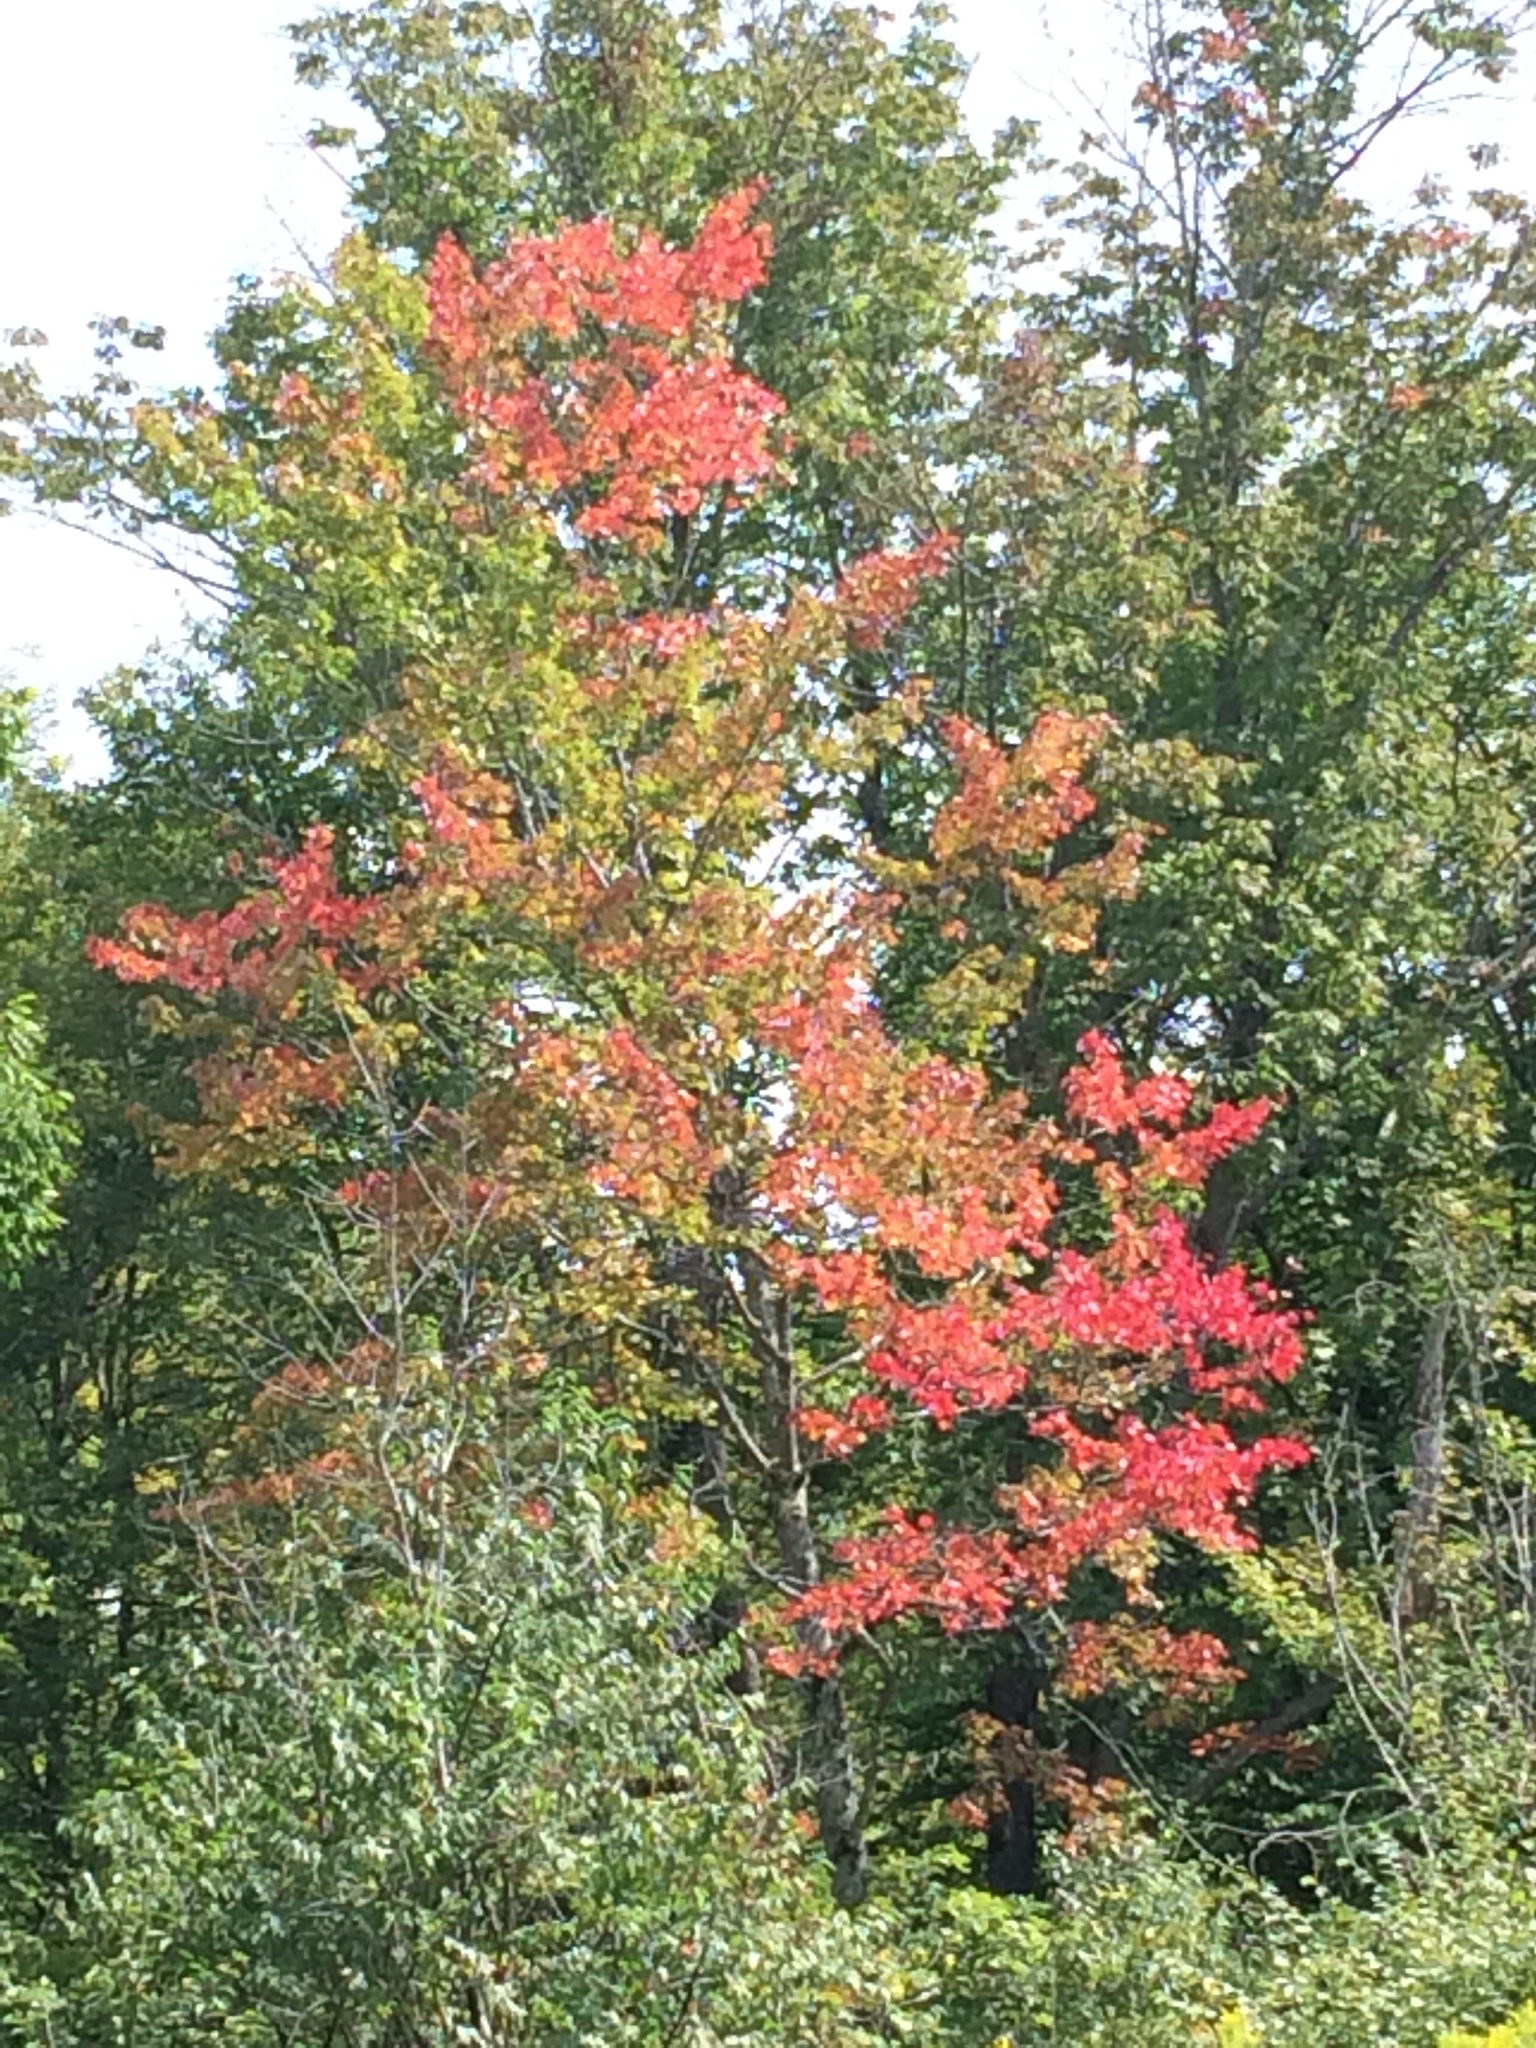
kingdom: Plantae
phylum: Tracheophyta
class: Magnoliopsida
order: Sapindales
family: Sapindaceae
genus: Acer
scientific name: Acer rubrum
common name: Red maple
